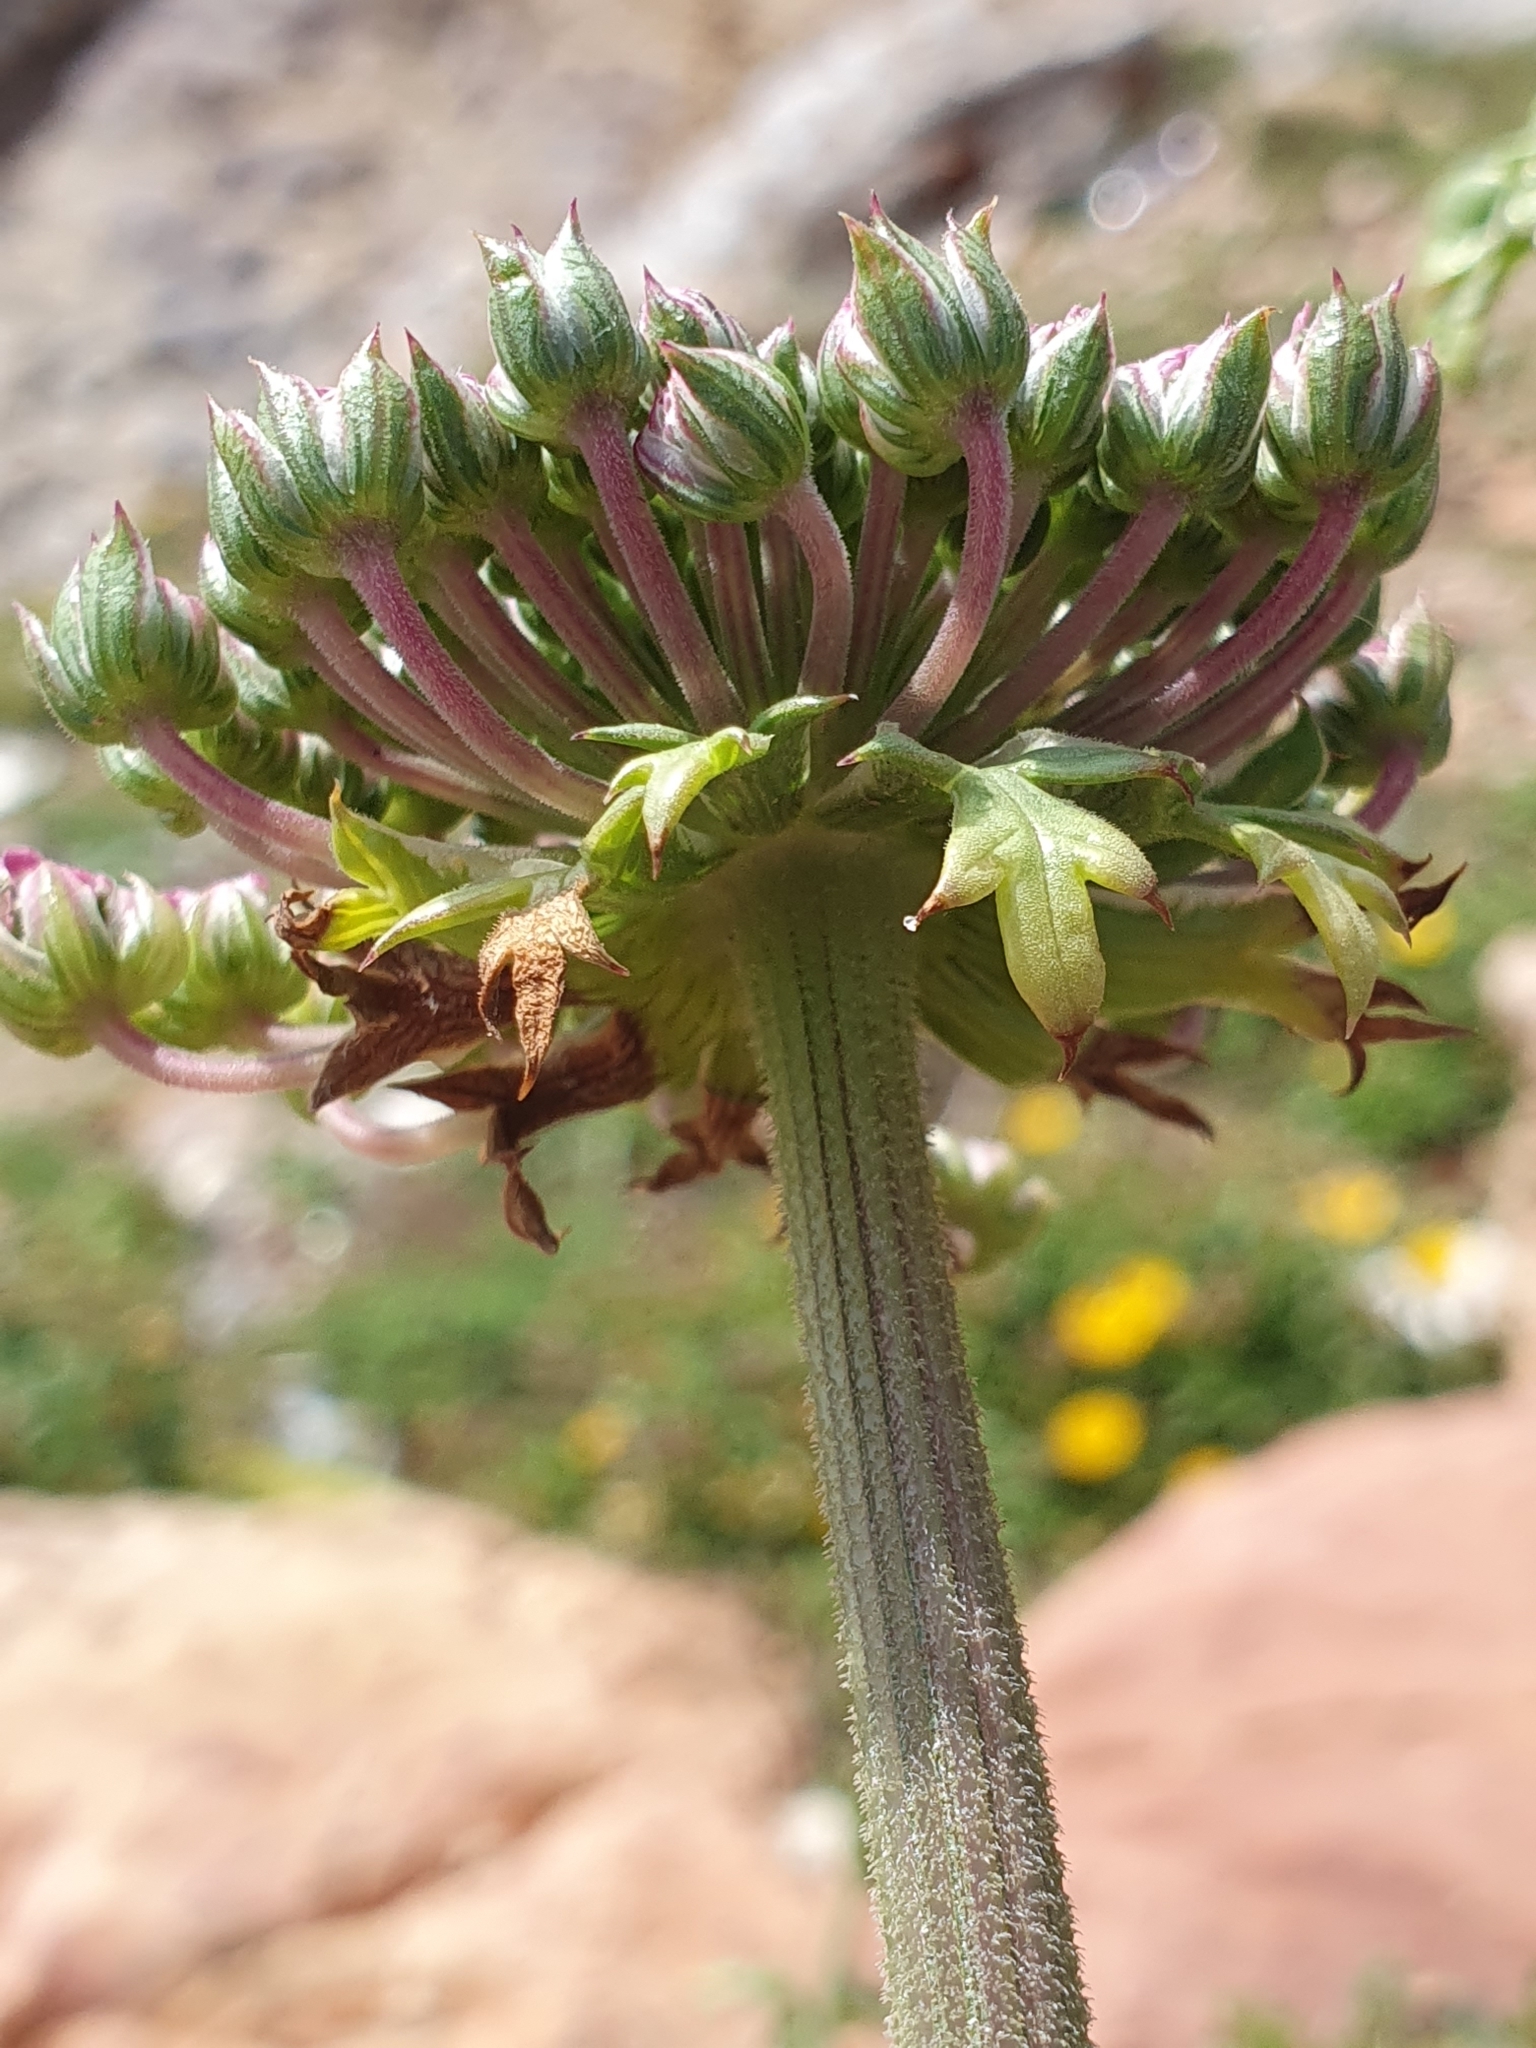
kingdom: Plantae
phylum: Tracheophyta
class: Magnoliopsida
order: Apiales
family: Apiaceae
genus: Daucus
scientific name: Daucus carota
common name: Wild carrot
